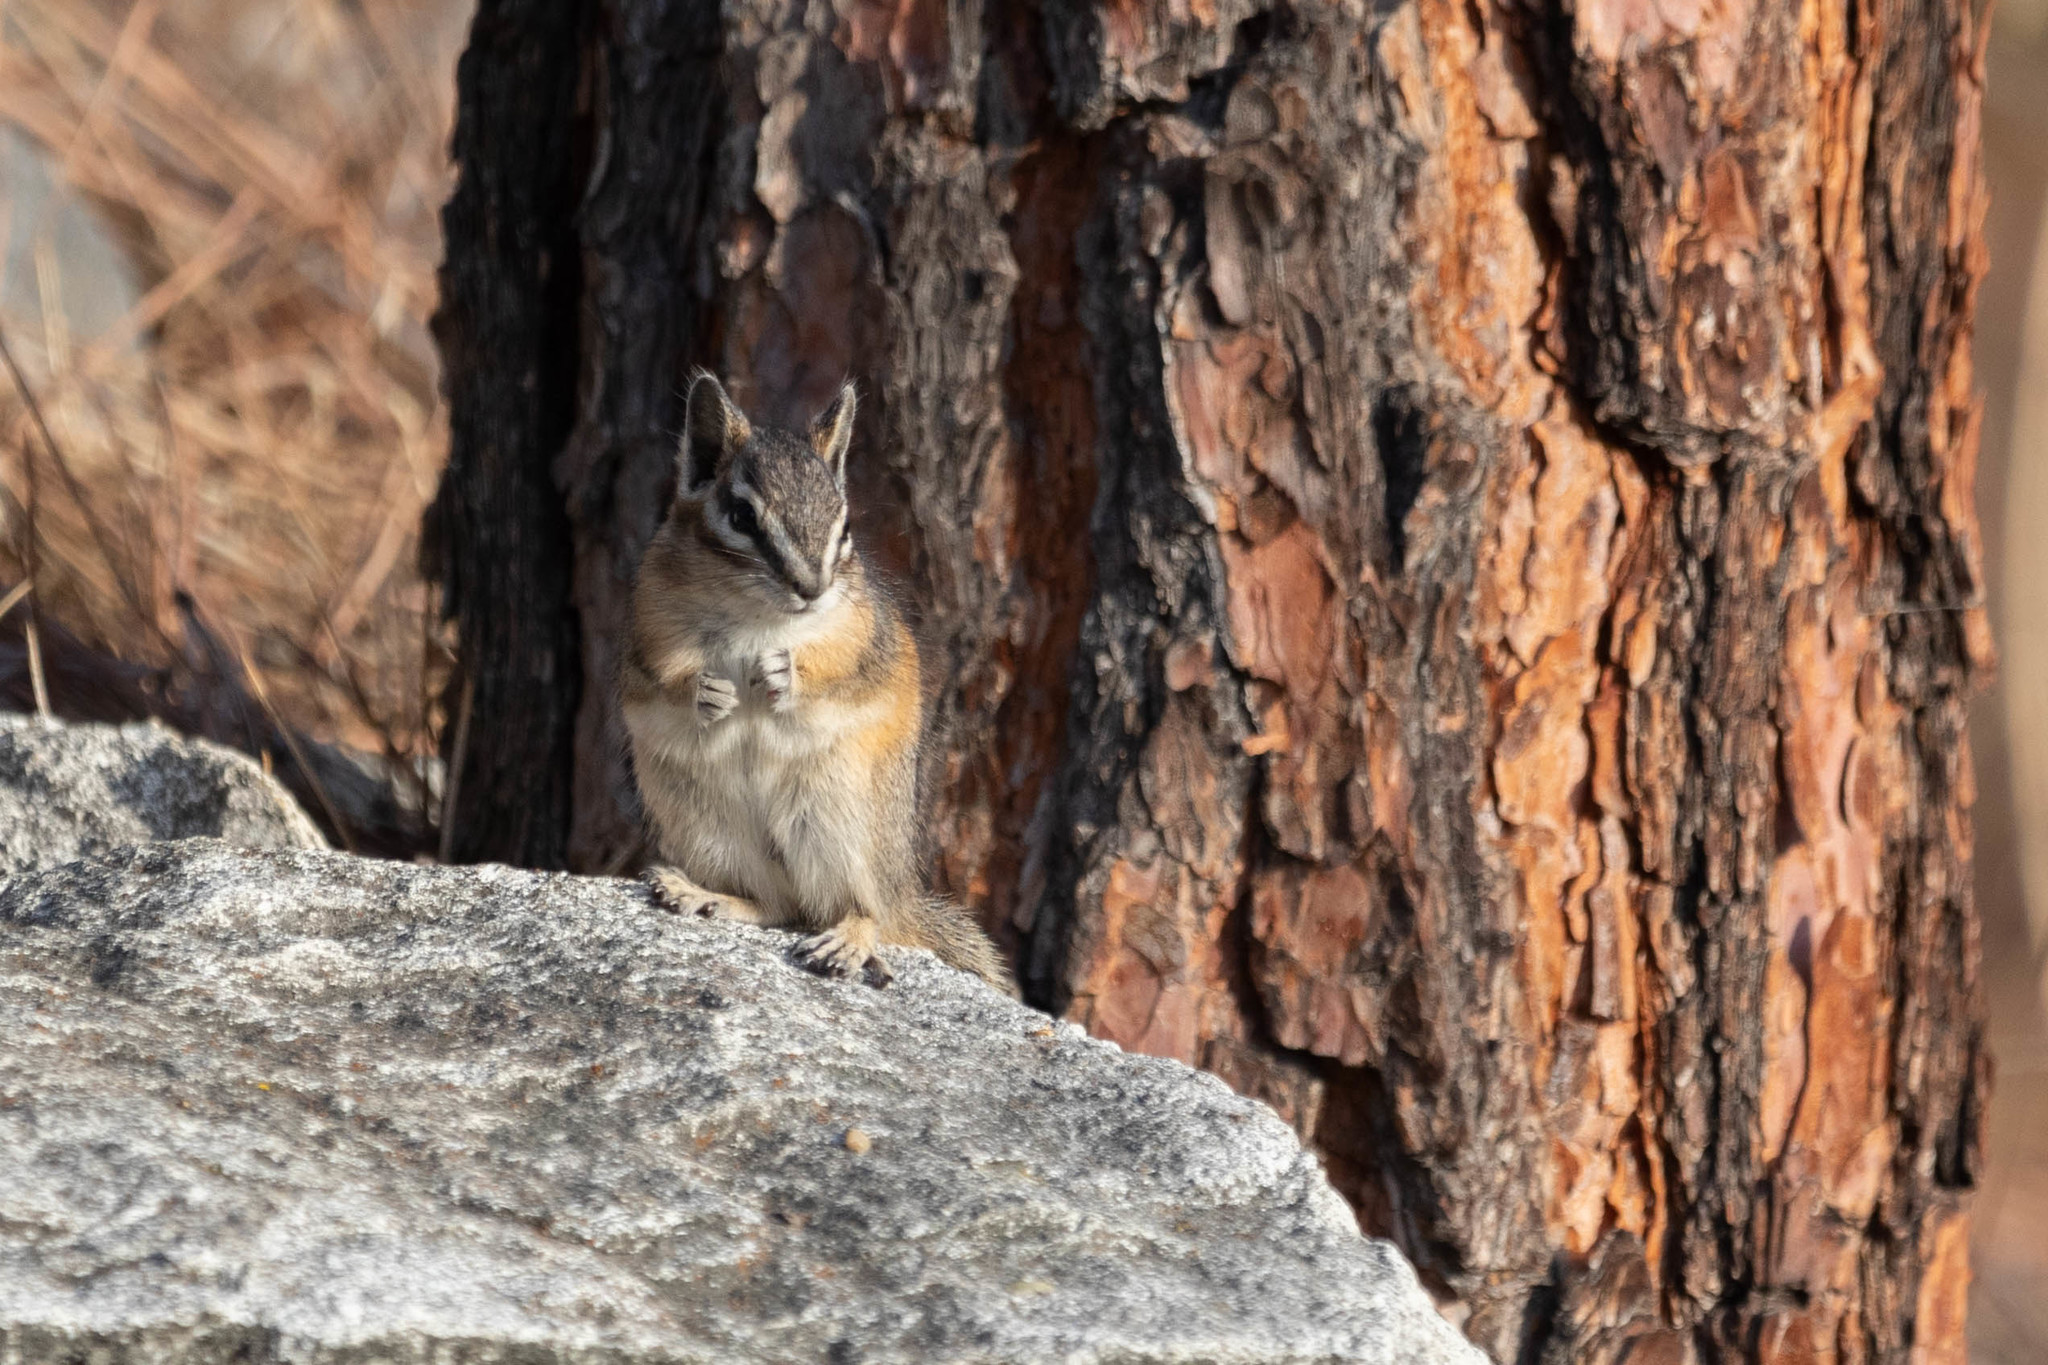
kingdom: Animalia
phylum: Chordata
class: Mammalia
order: Rodentia
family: Sciuridae
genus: Tamias
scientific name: Tamias amoenus
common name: Yellow-pine chipmunk
